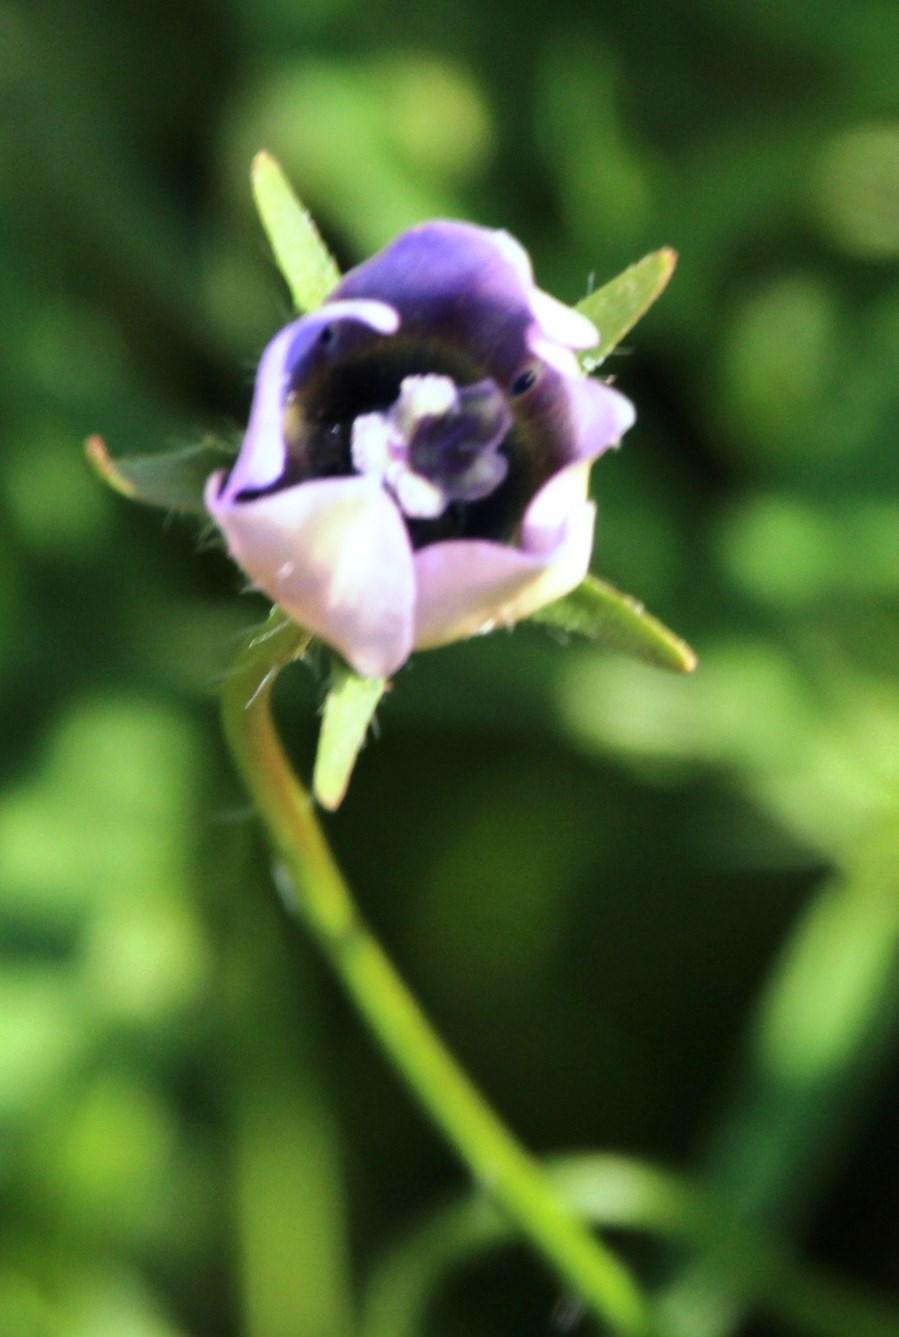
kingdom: Plantae
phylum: Tracheophyta
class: Magnoliopsida
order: Asterales
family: Campanulaceae
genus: Wahlenbergia
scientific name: Wahlenbergia capensis
